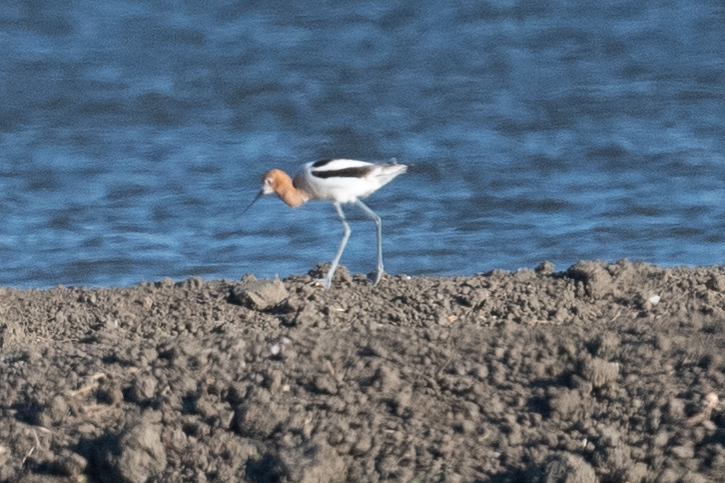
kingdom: Animalia
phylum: Chordata
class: Aves
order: Charadriiformes
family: Recurvirostridae
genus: Recurvirostra
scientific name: Recurvirostra americana
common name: American avocet
